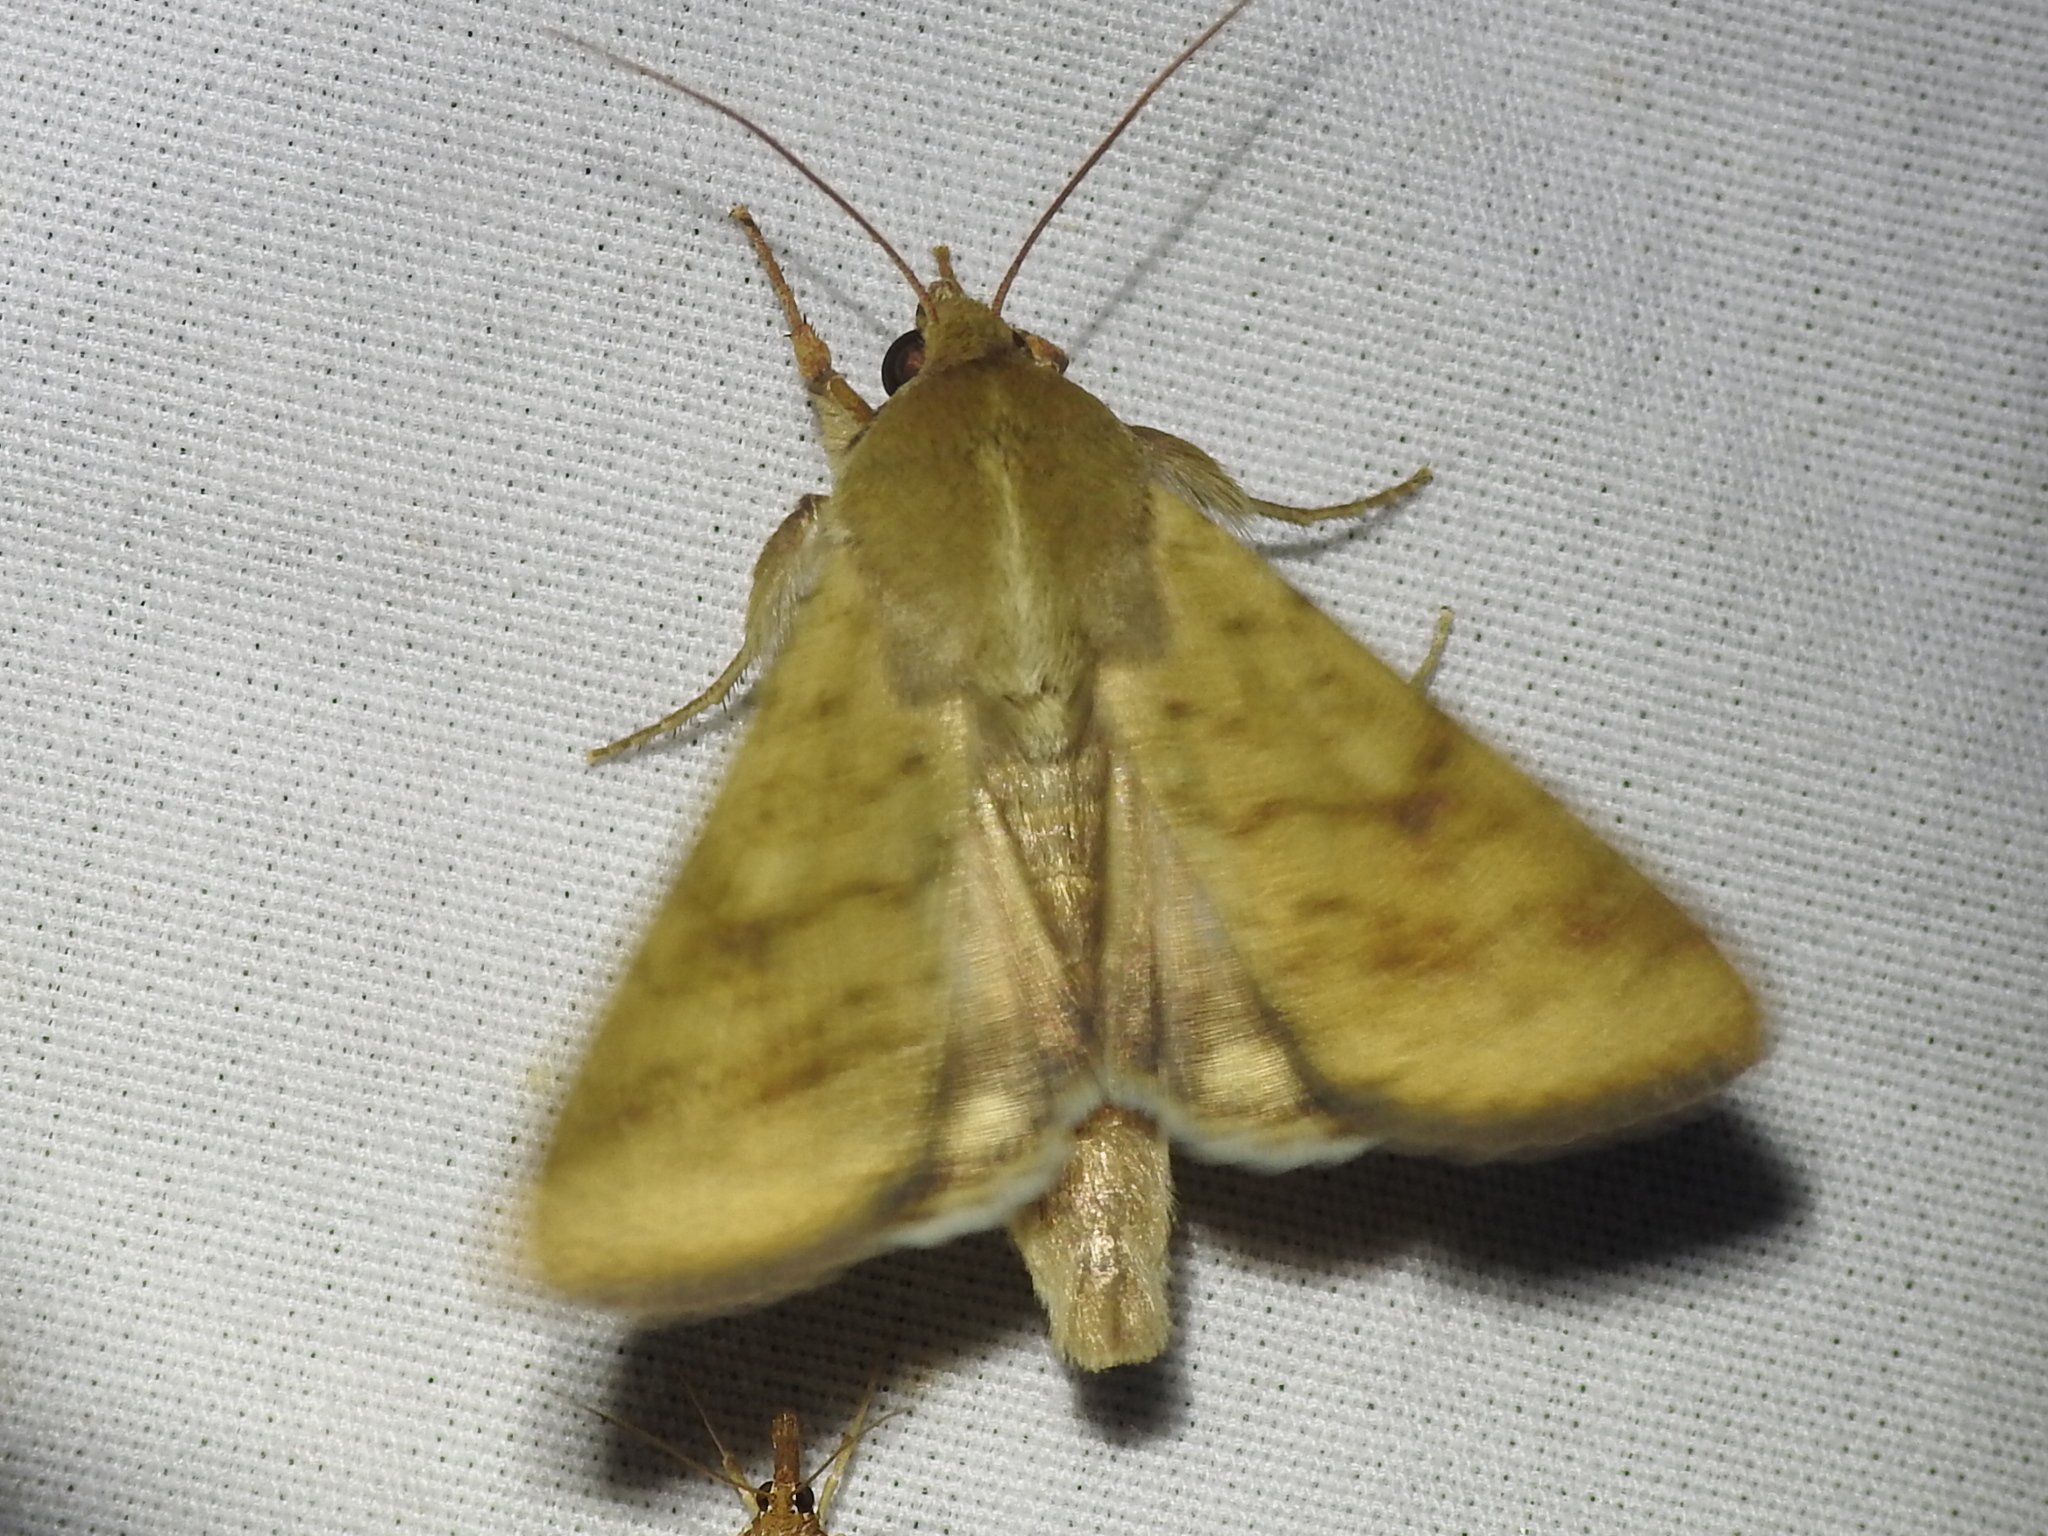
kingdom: Animalia
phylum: Arthropoda
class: Insecta
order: Lepidoptera
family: Noctuidae
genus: Helicoverpa
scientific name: Helicoverpa zea
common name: Bollworm
